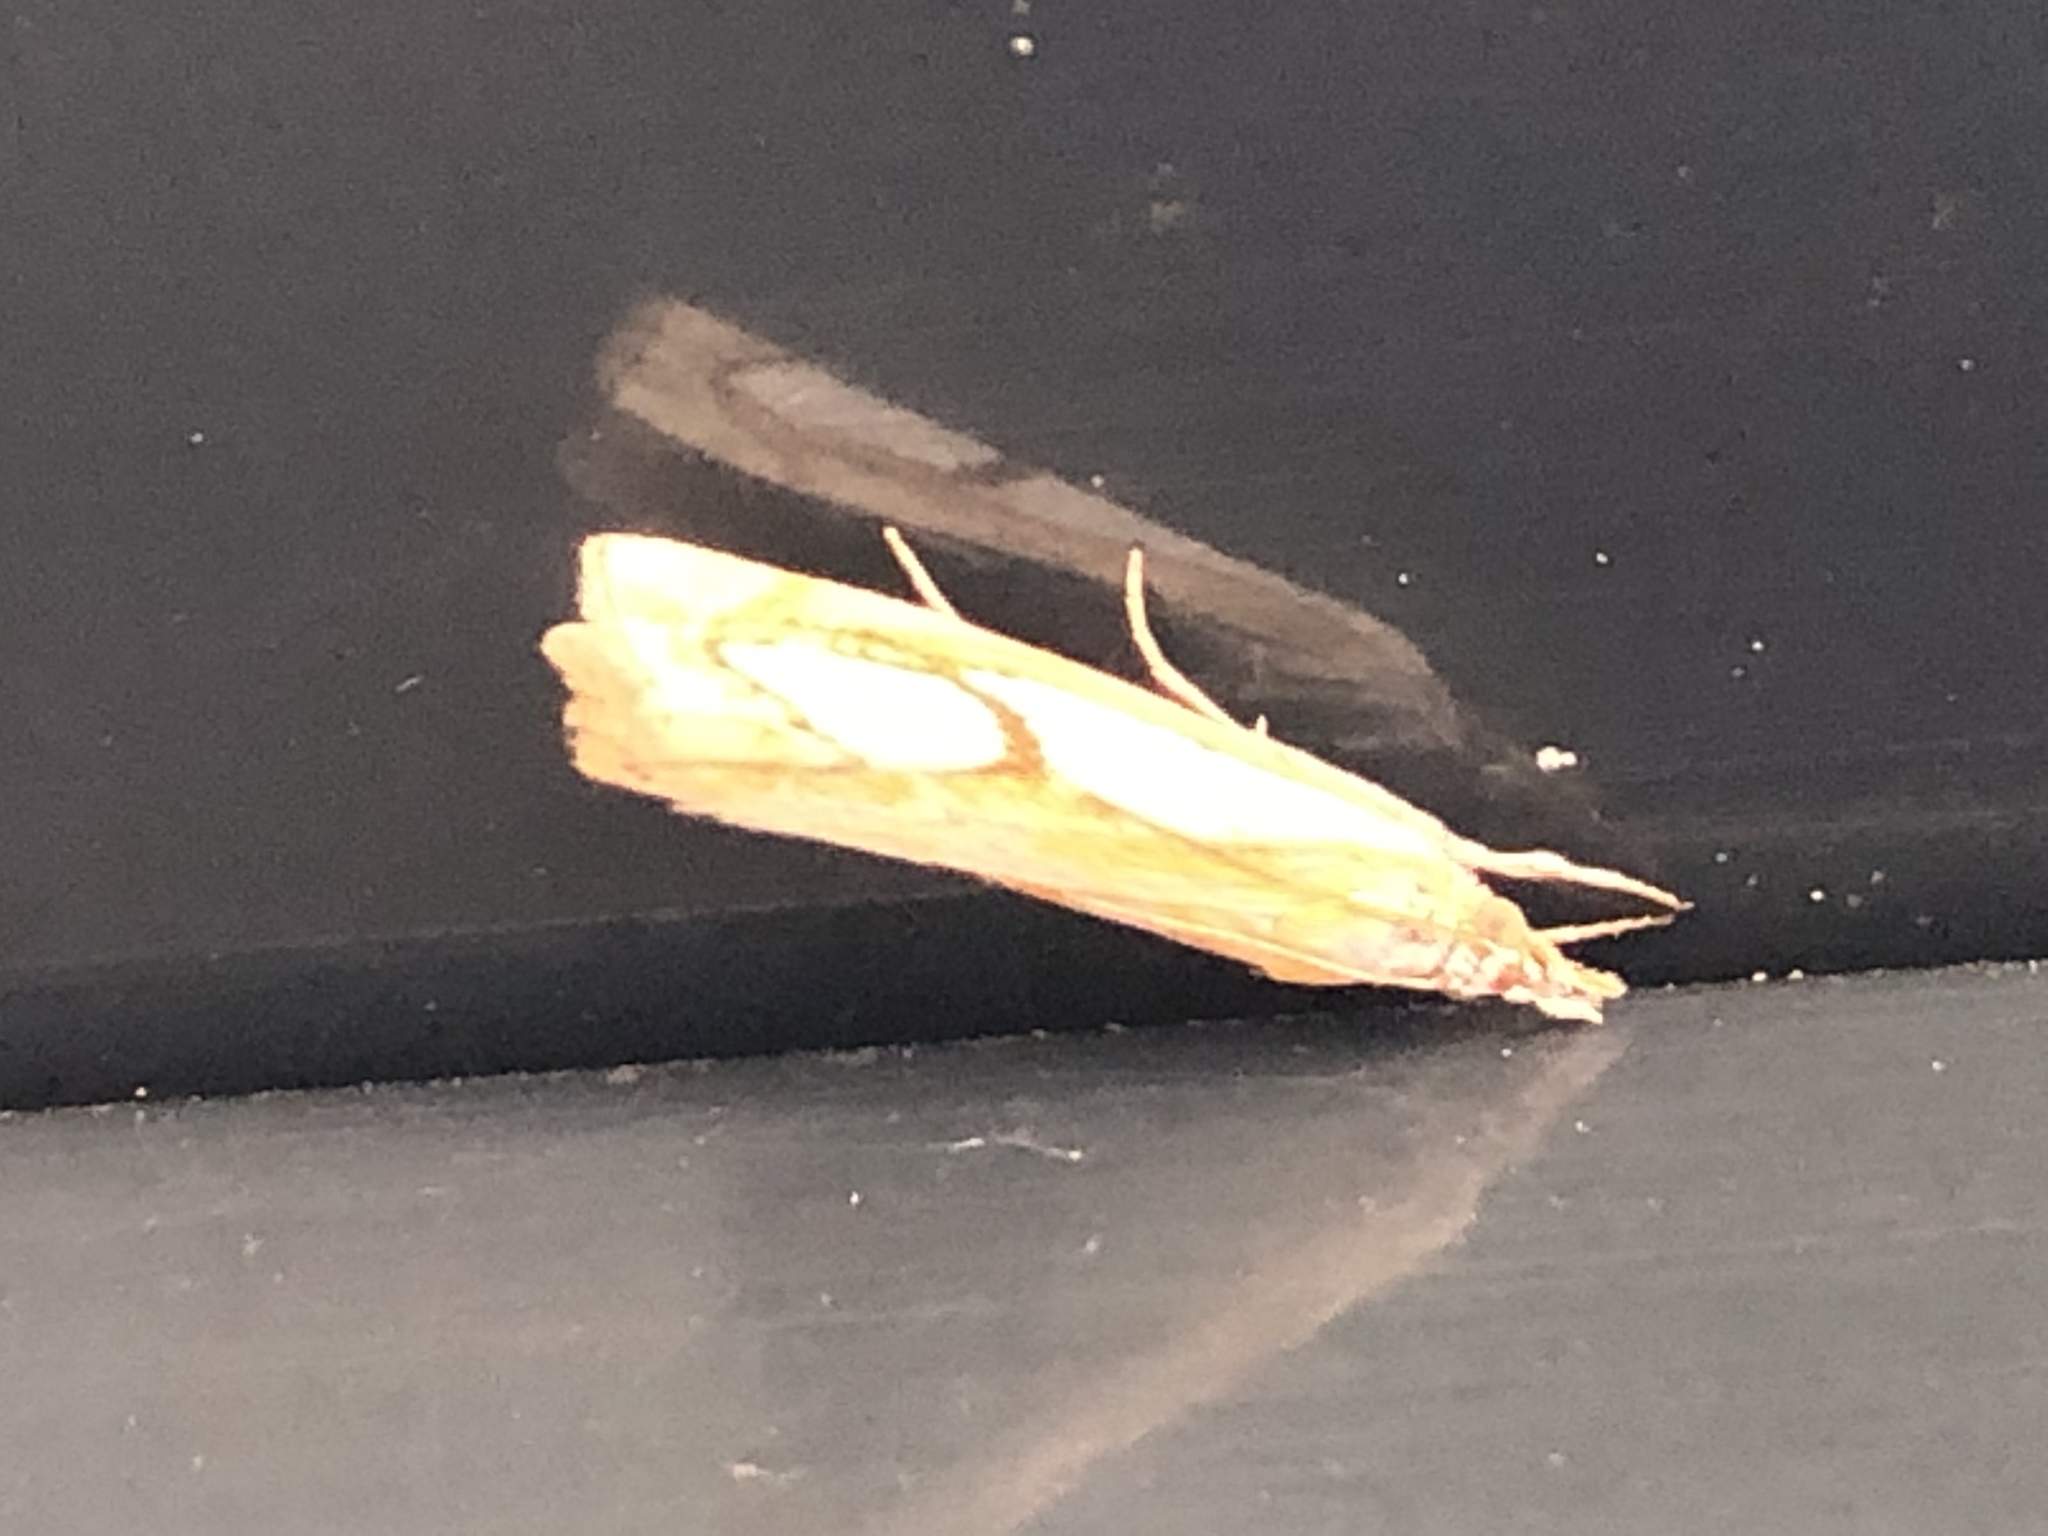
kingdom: Animalia
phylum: Arthropoda
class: Insecta
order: Lepidoptera
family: Crambidae
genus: Catoptria
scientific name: Catoptria pinella
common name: Pearl grass-veneer
